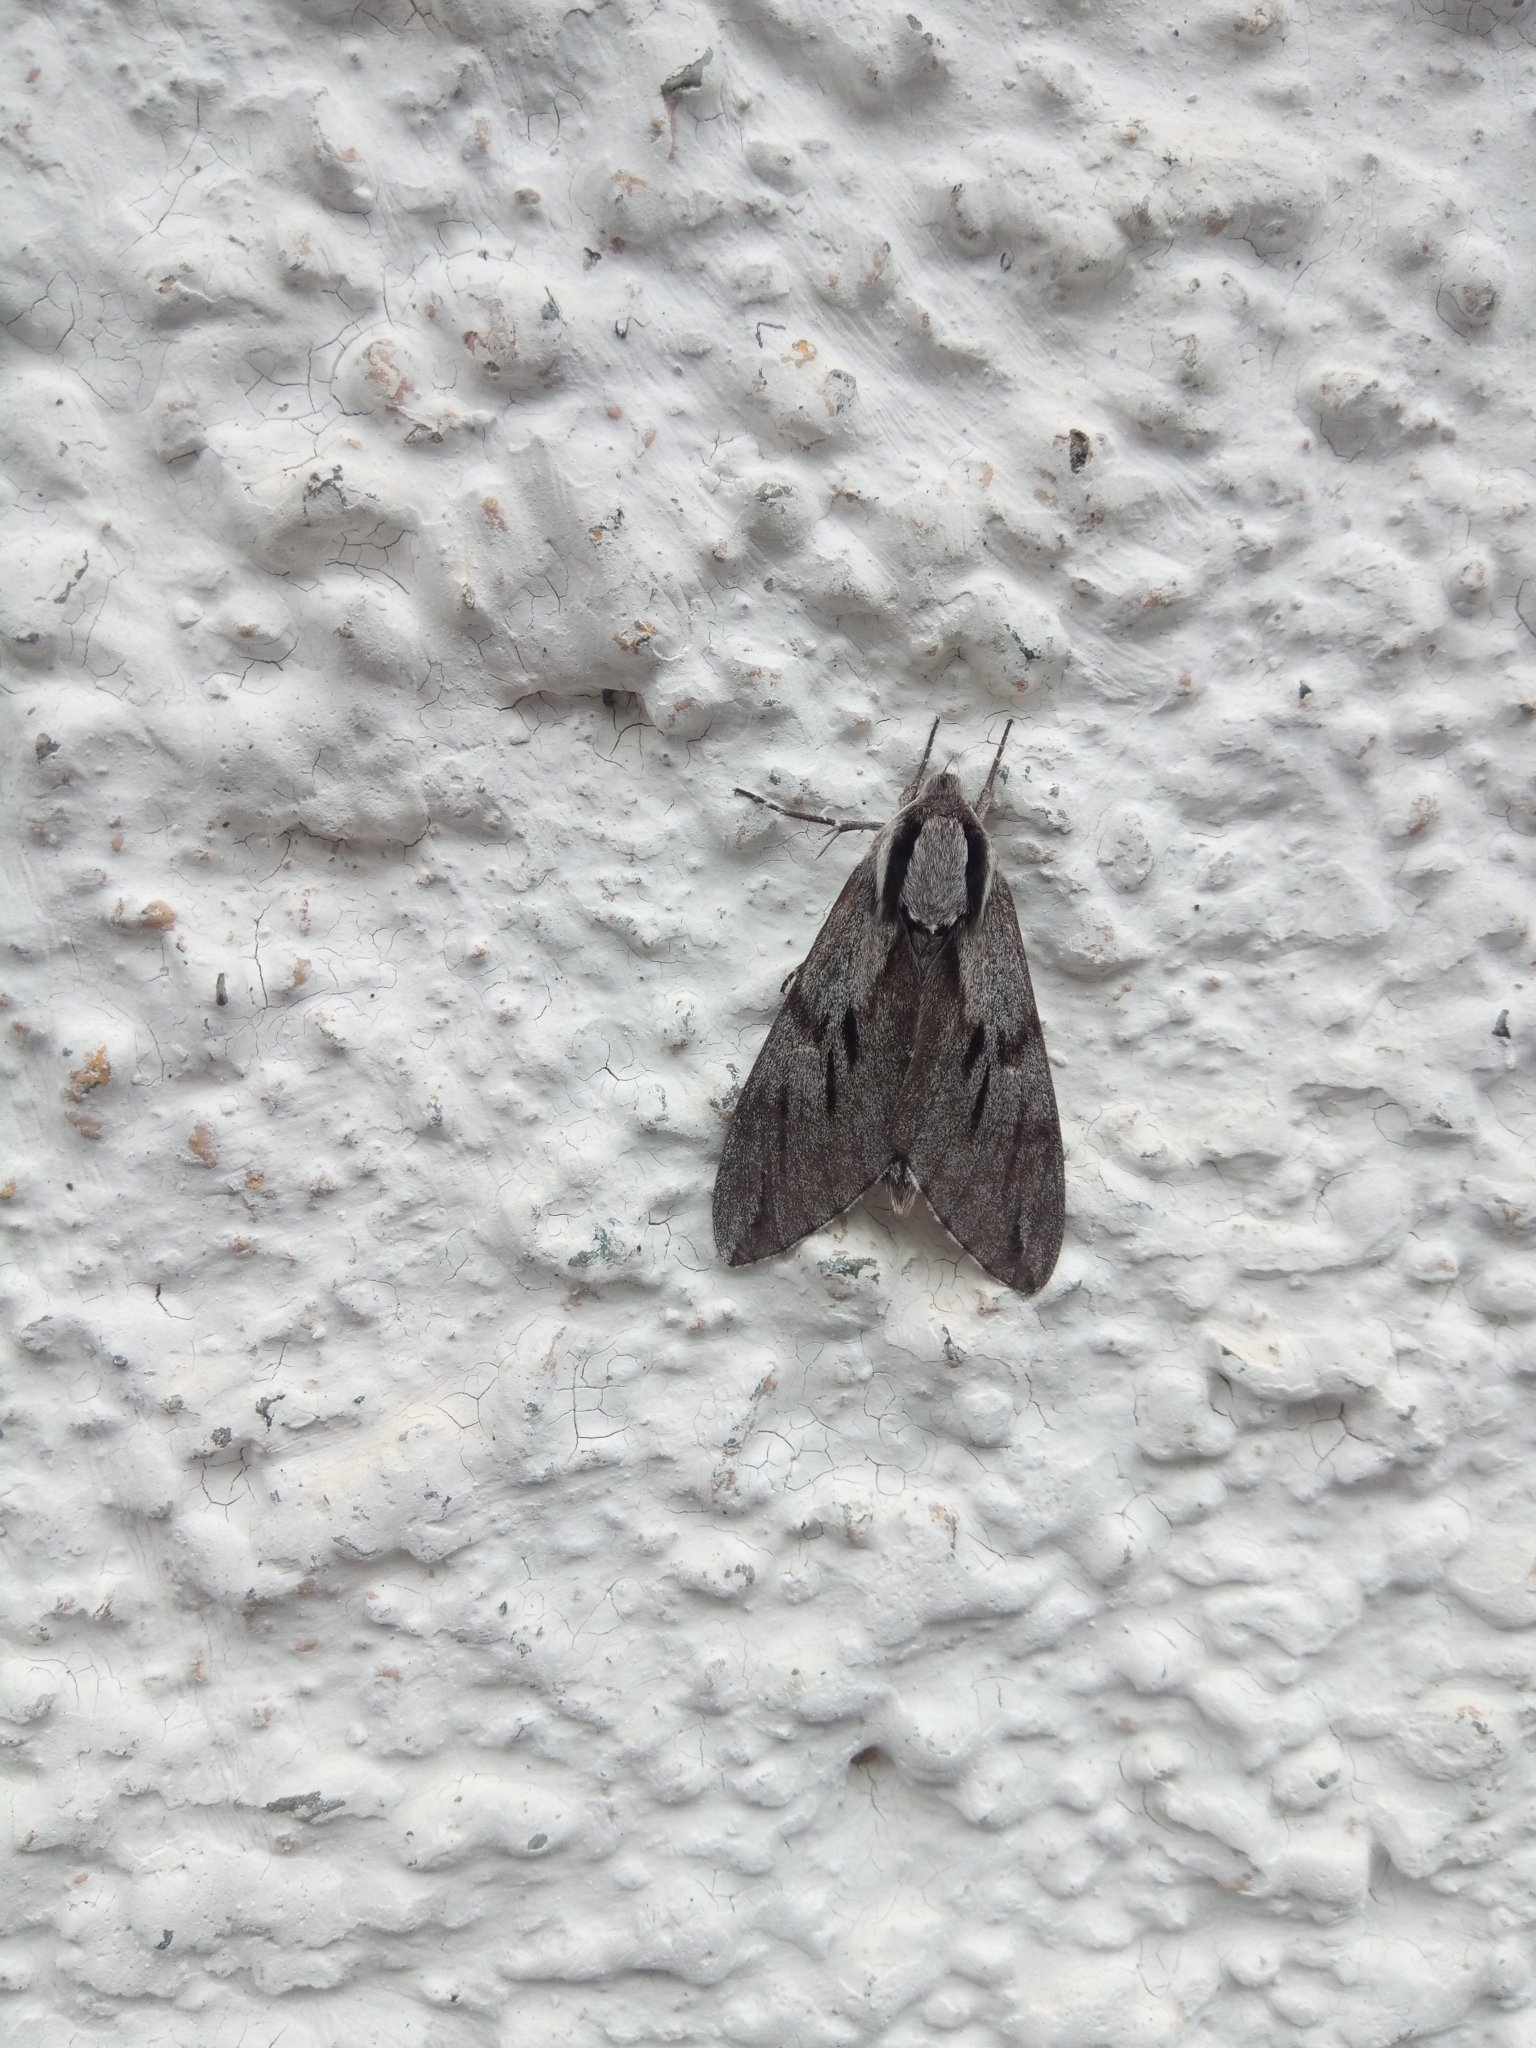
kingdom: Animalia
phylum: Arthropoda
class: Insecta
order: Lepidoptera
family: Sphingidae
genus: Sphinx
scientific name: Sphinx pinastri
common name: Pine hawk-moth
